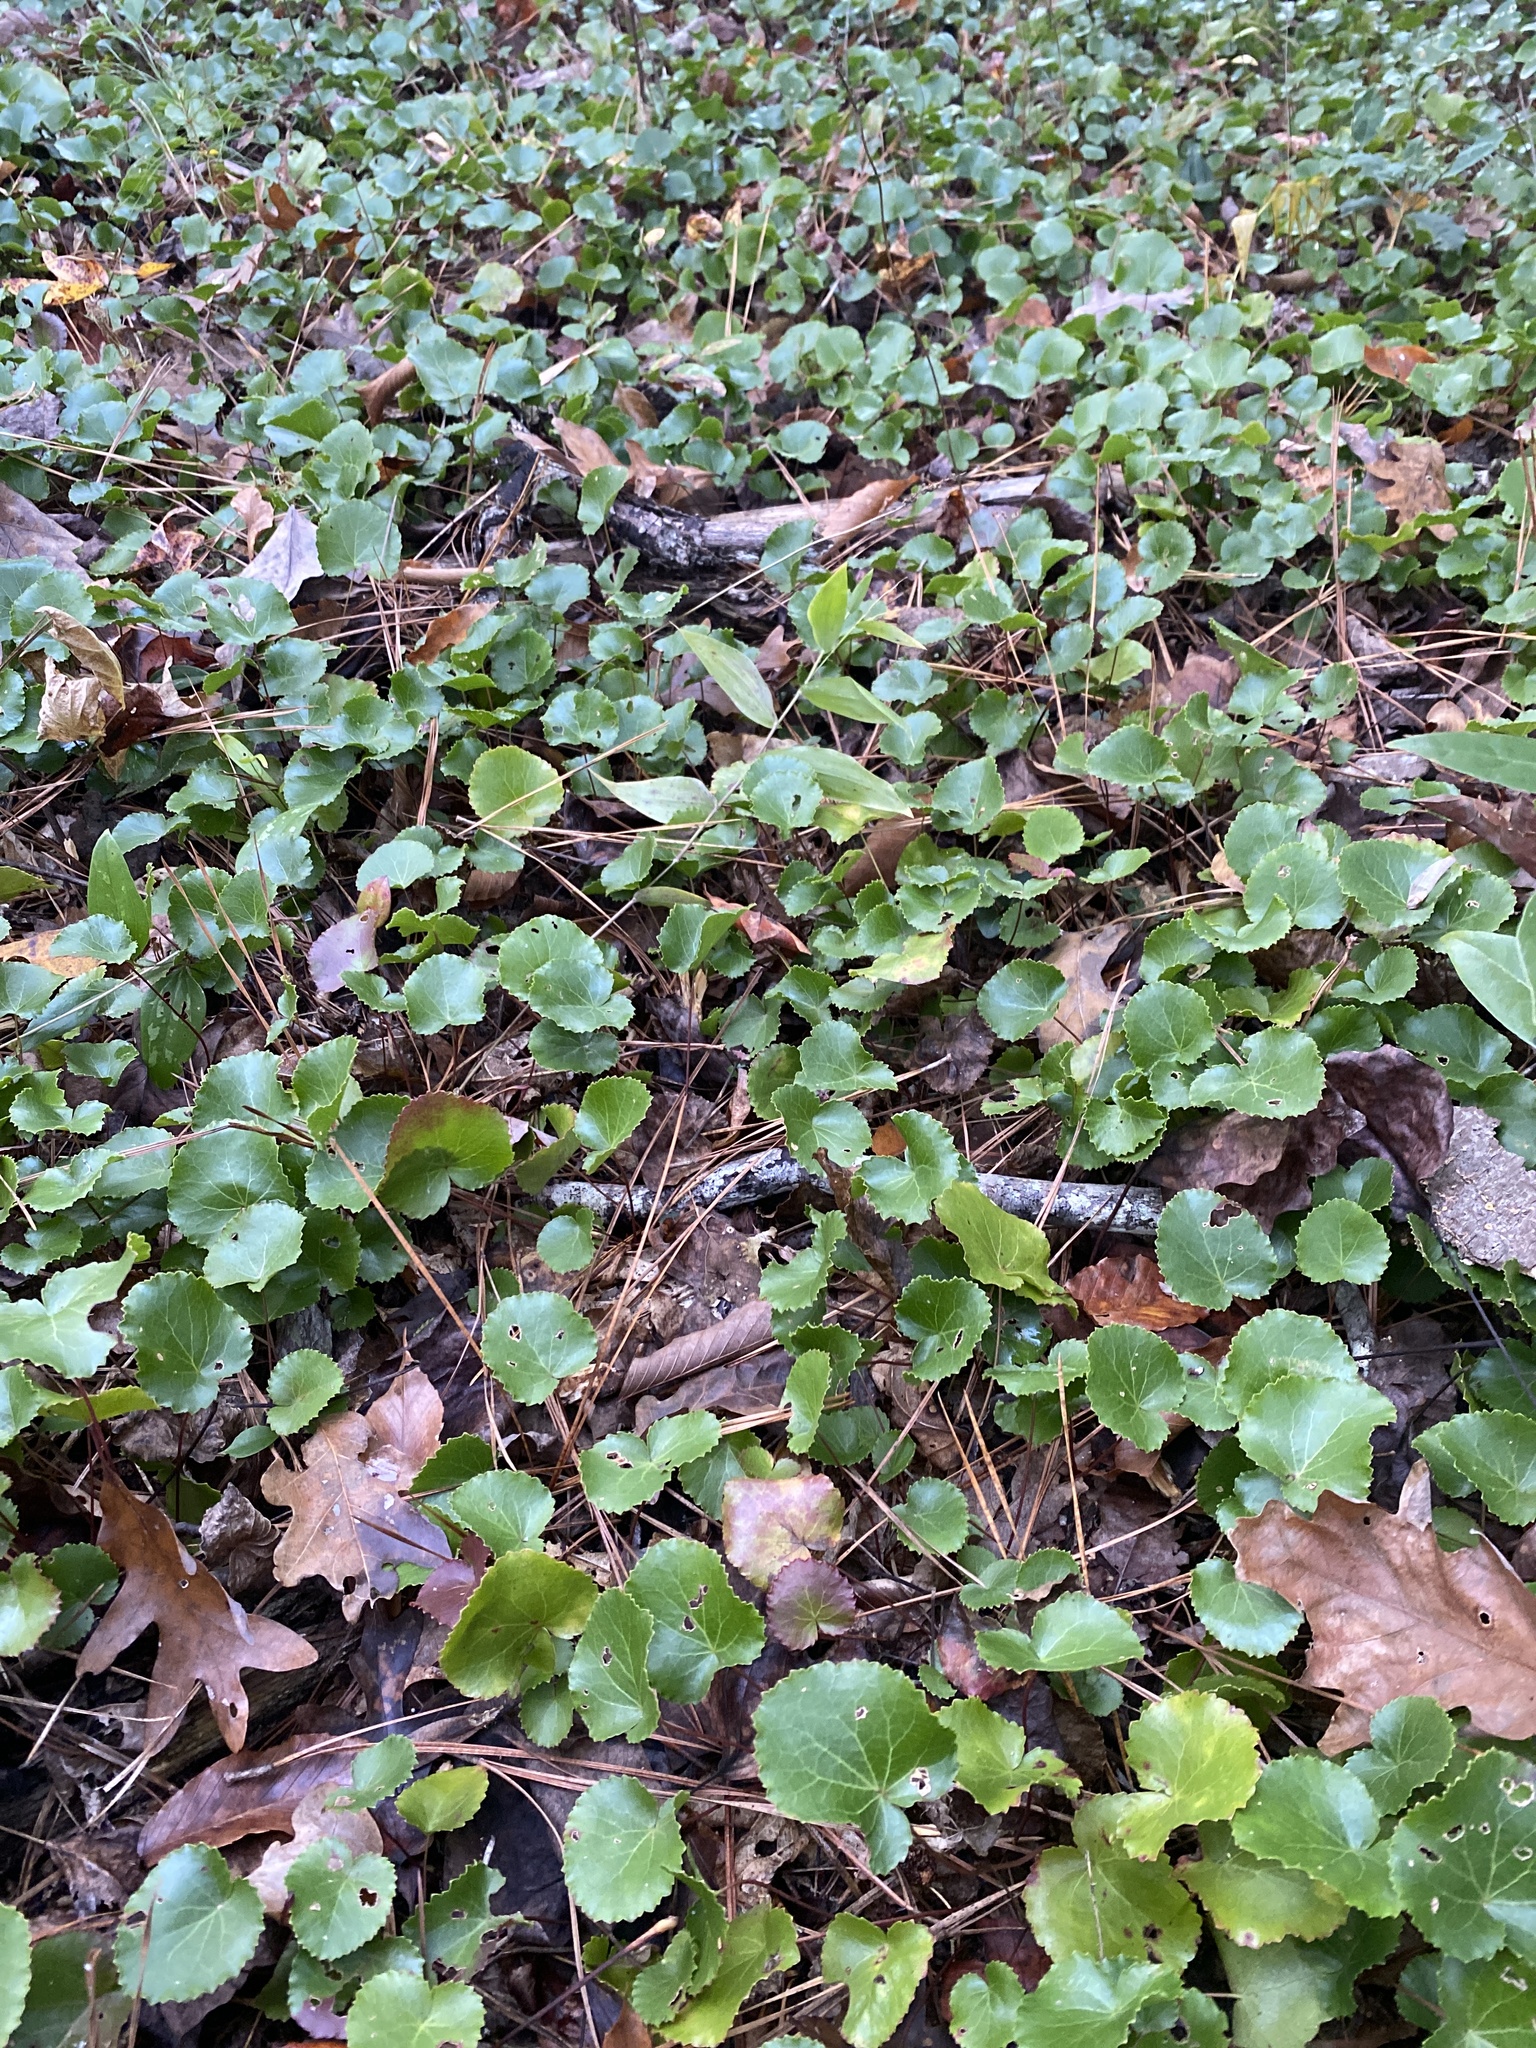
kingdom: Plantae
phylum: Tracheophyta
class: Magnoliopsida
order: Ericales
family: Diapensiaceae
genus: Galax
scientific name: Galax urceolata
